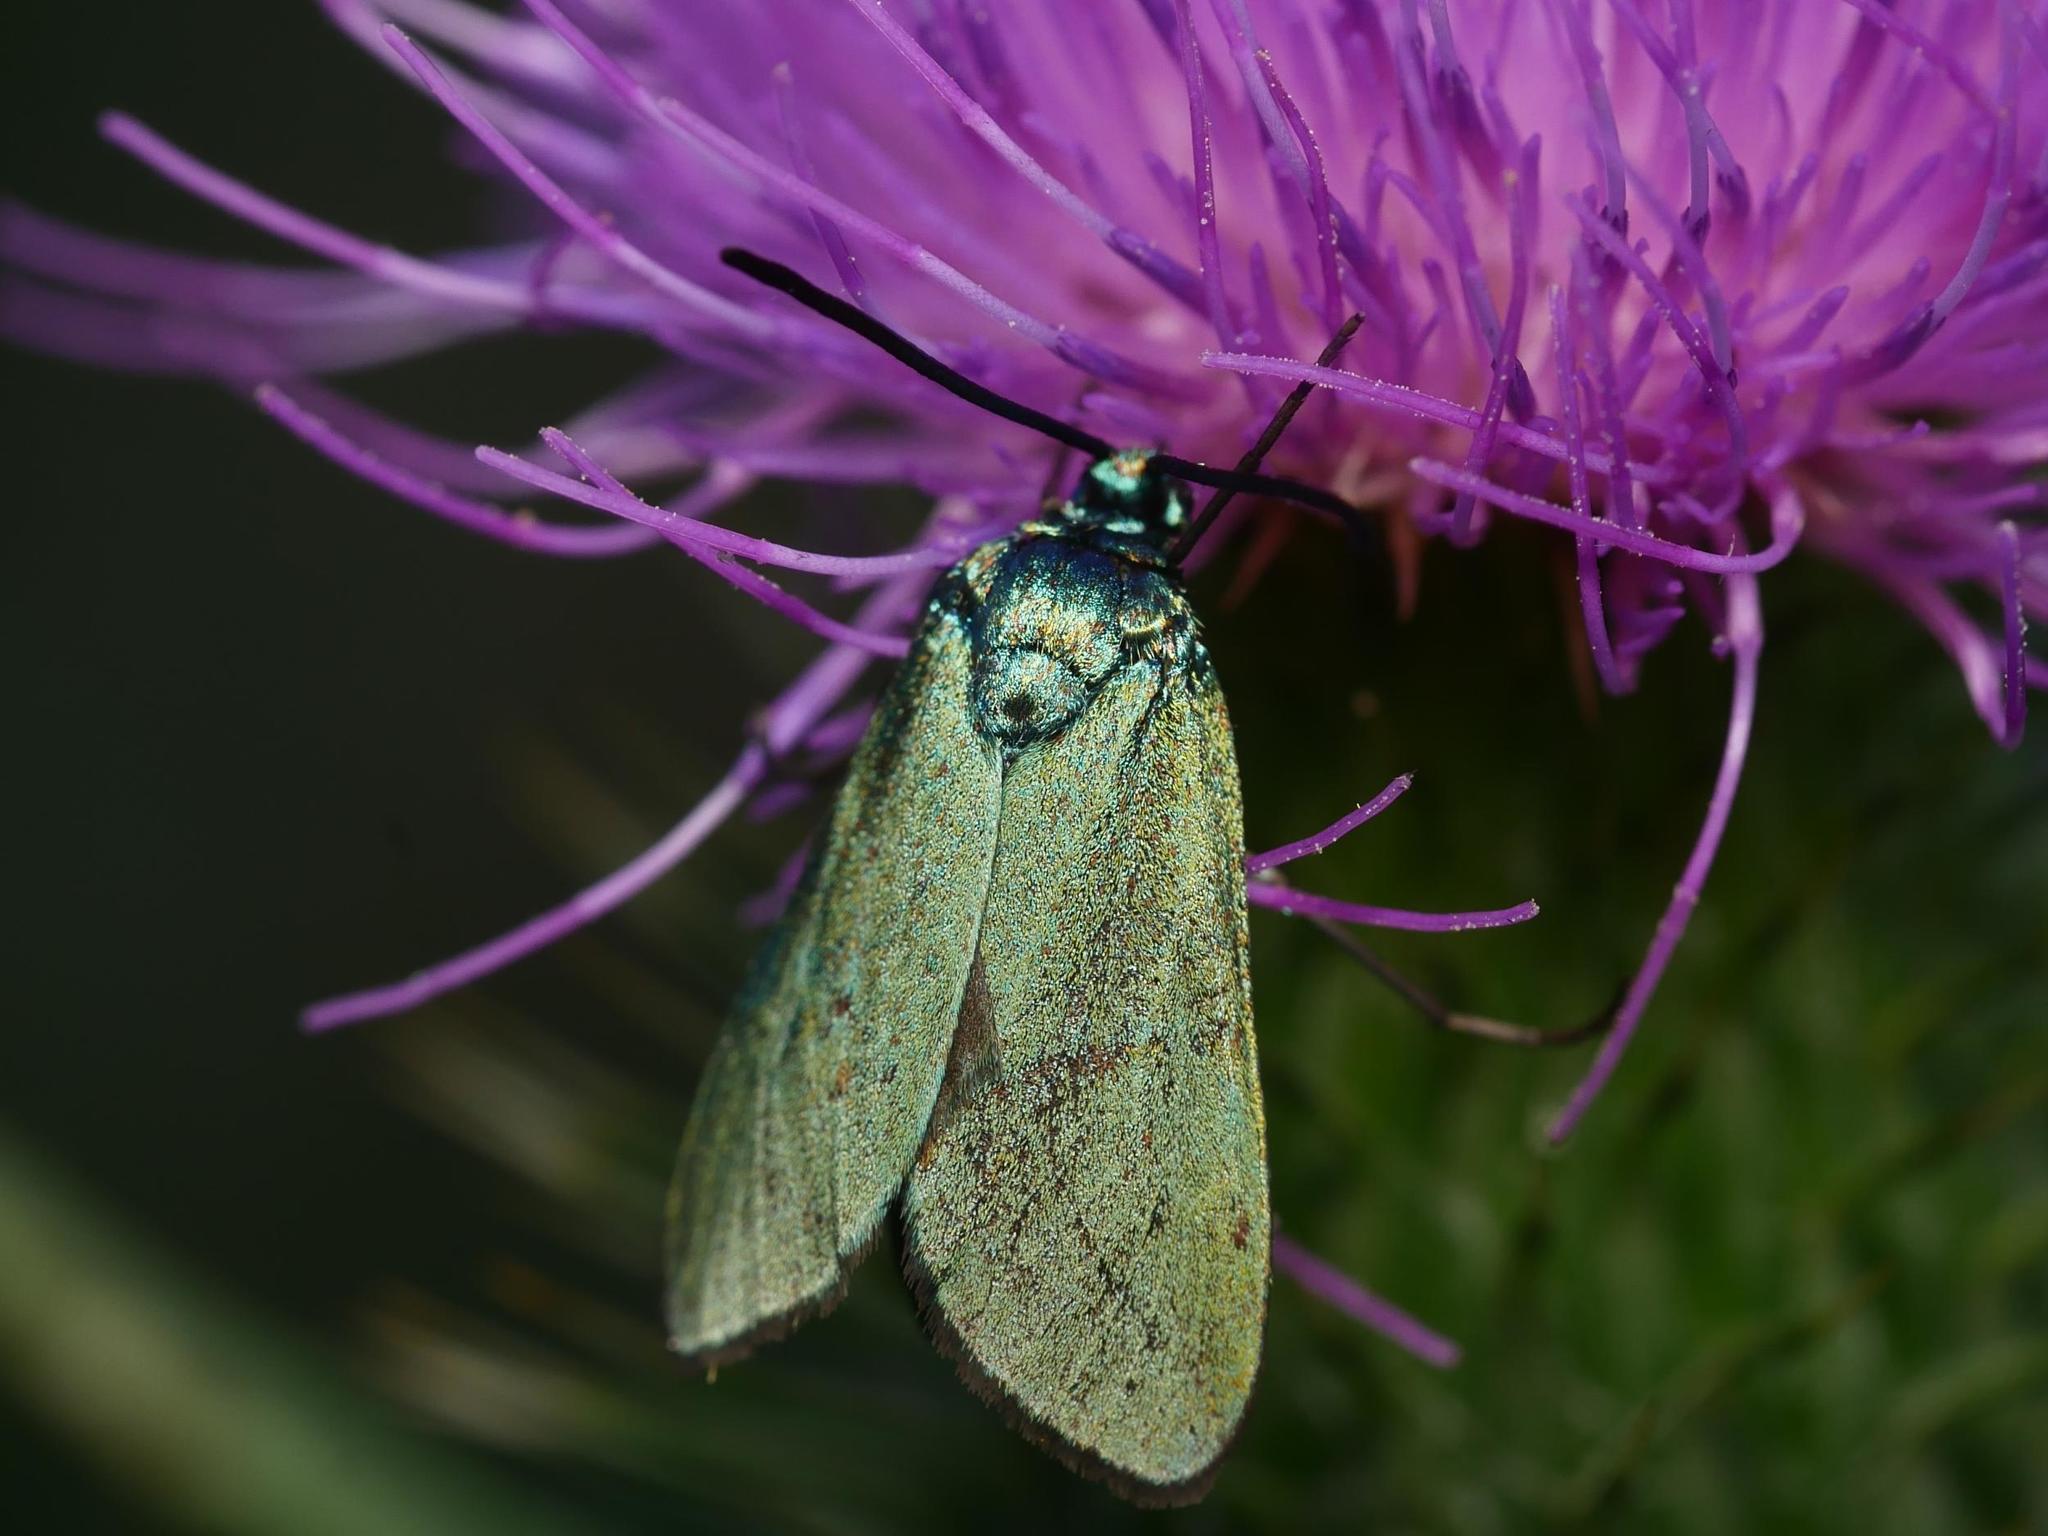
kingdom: Animalia
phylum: Arthropoda
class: Insecta
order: Lepidoptera
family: Zygaenidae
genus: Adscita
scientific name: Adscita statices
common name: Forester
